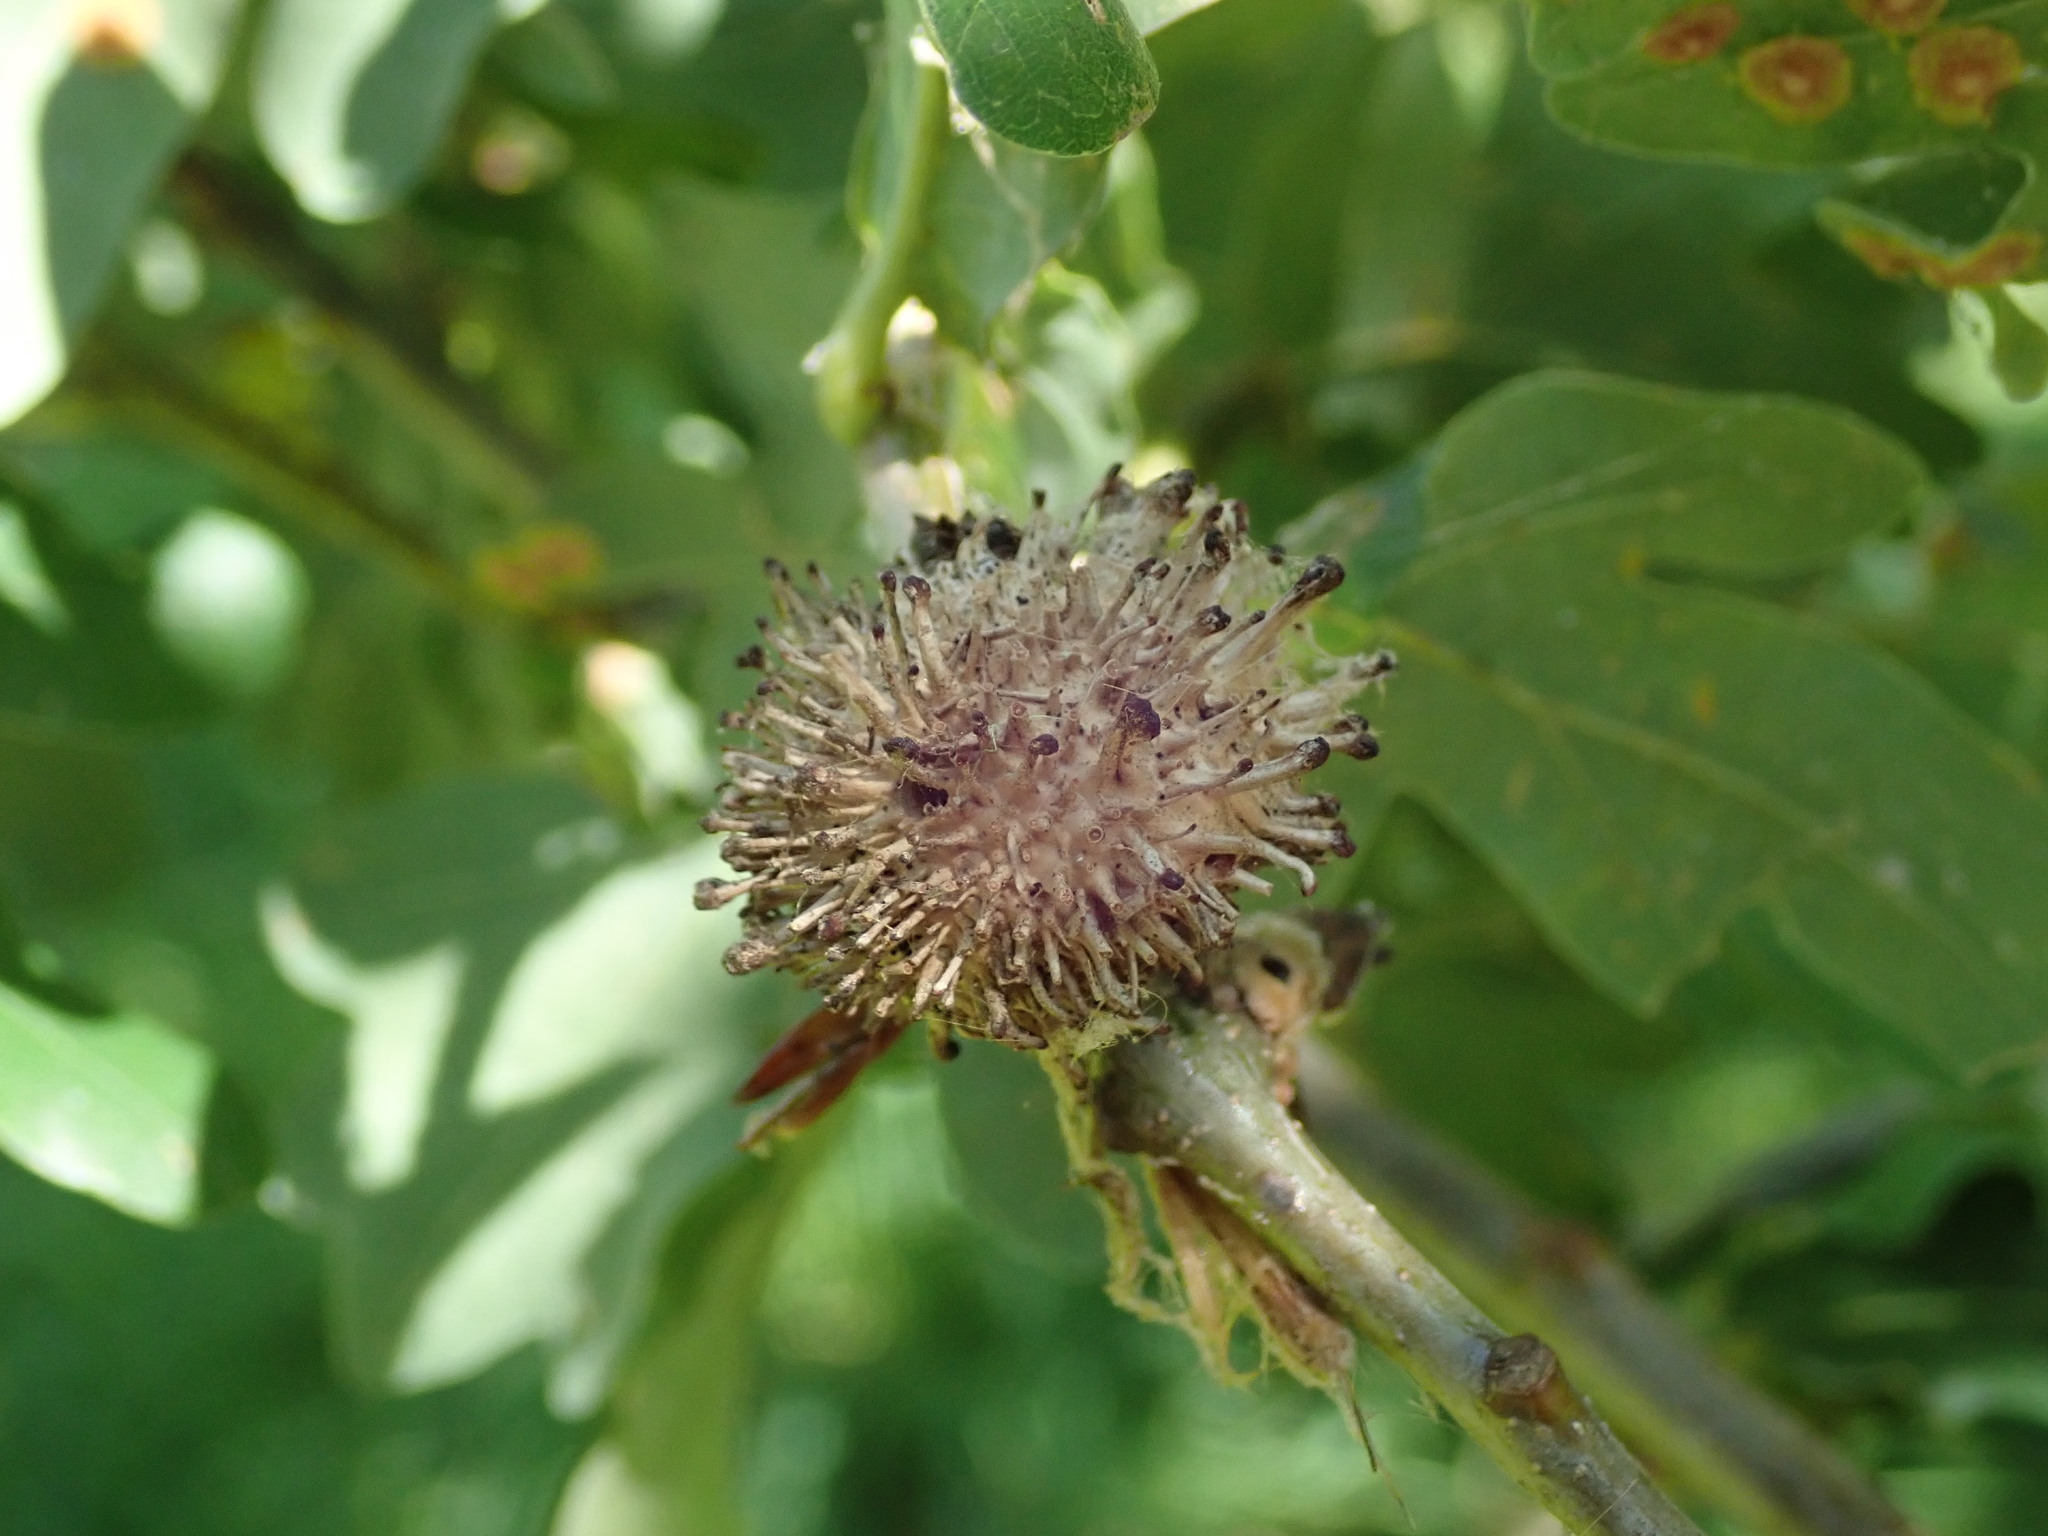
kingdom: Animalia
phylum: Arthropoda
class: Insecta
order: Hymenoptera
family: Cynipidae
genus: Andricus
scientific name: Andricus lucidus
